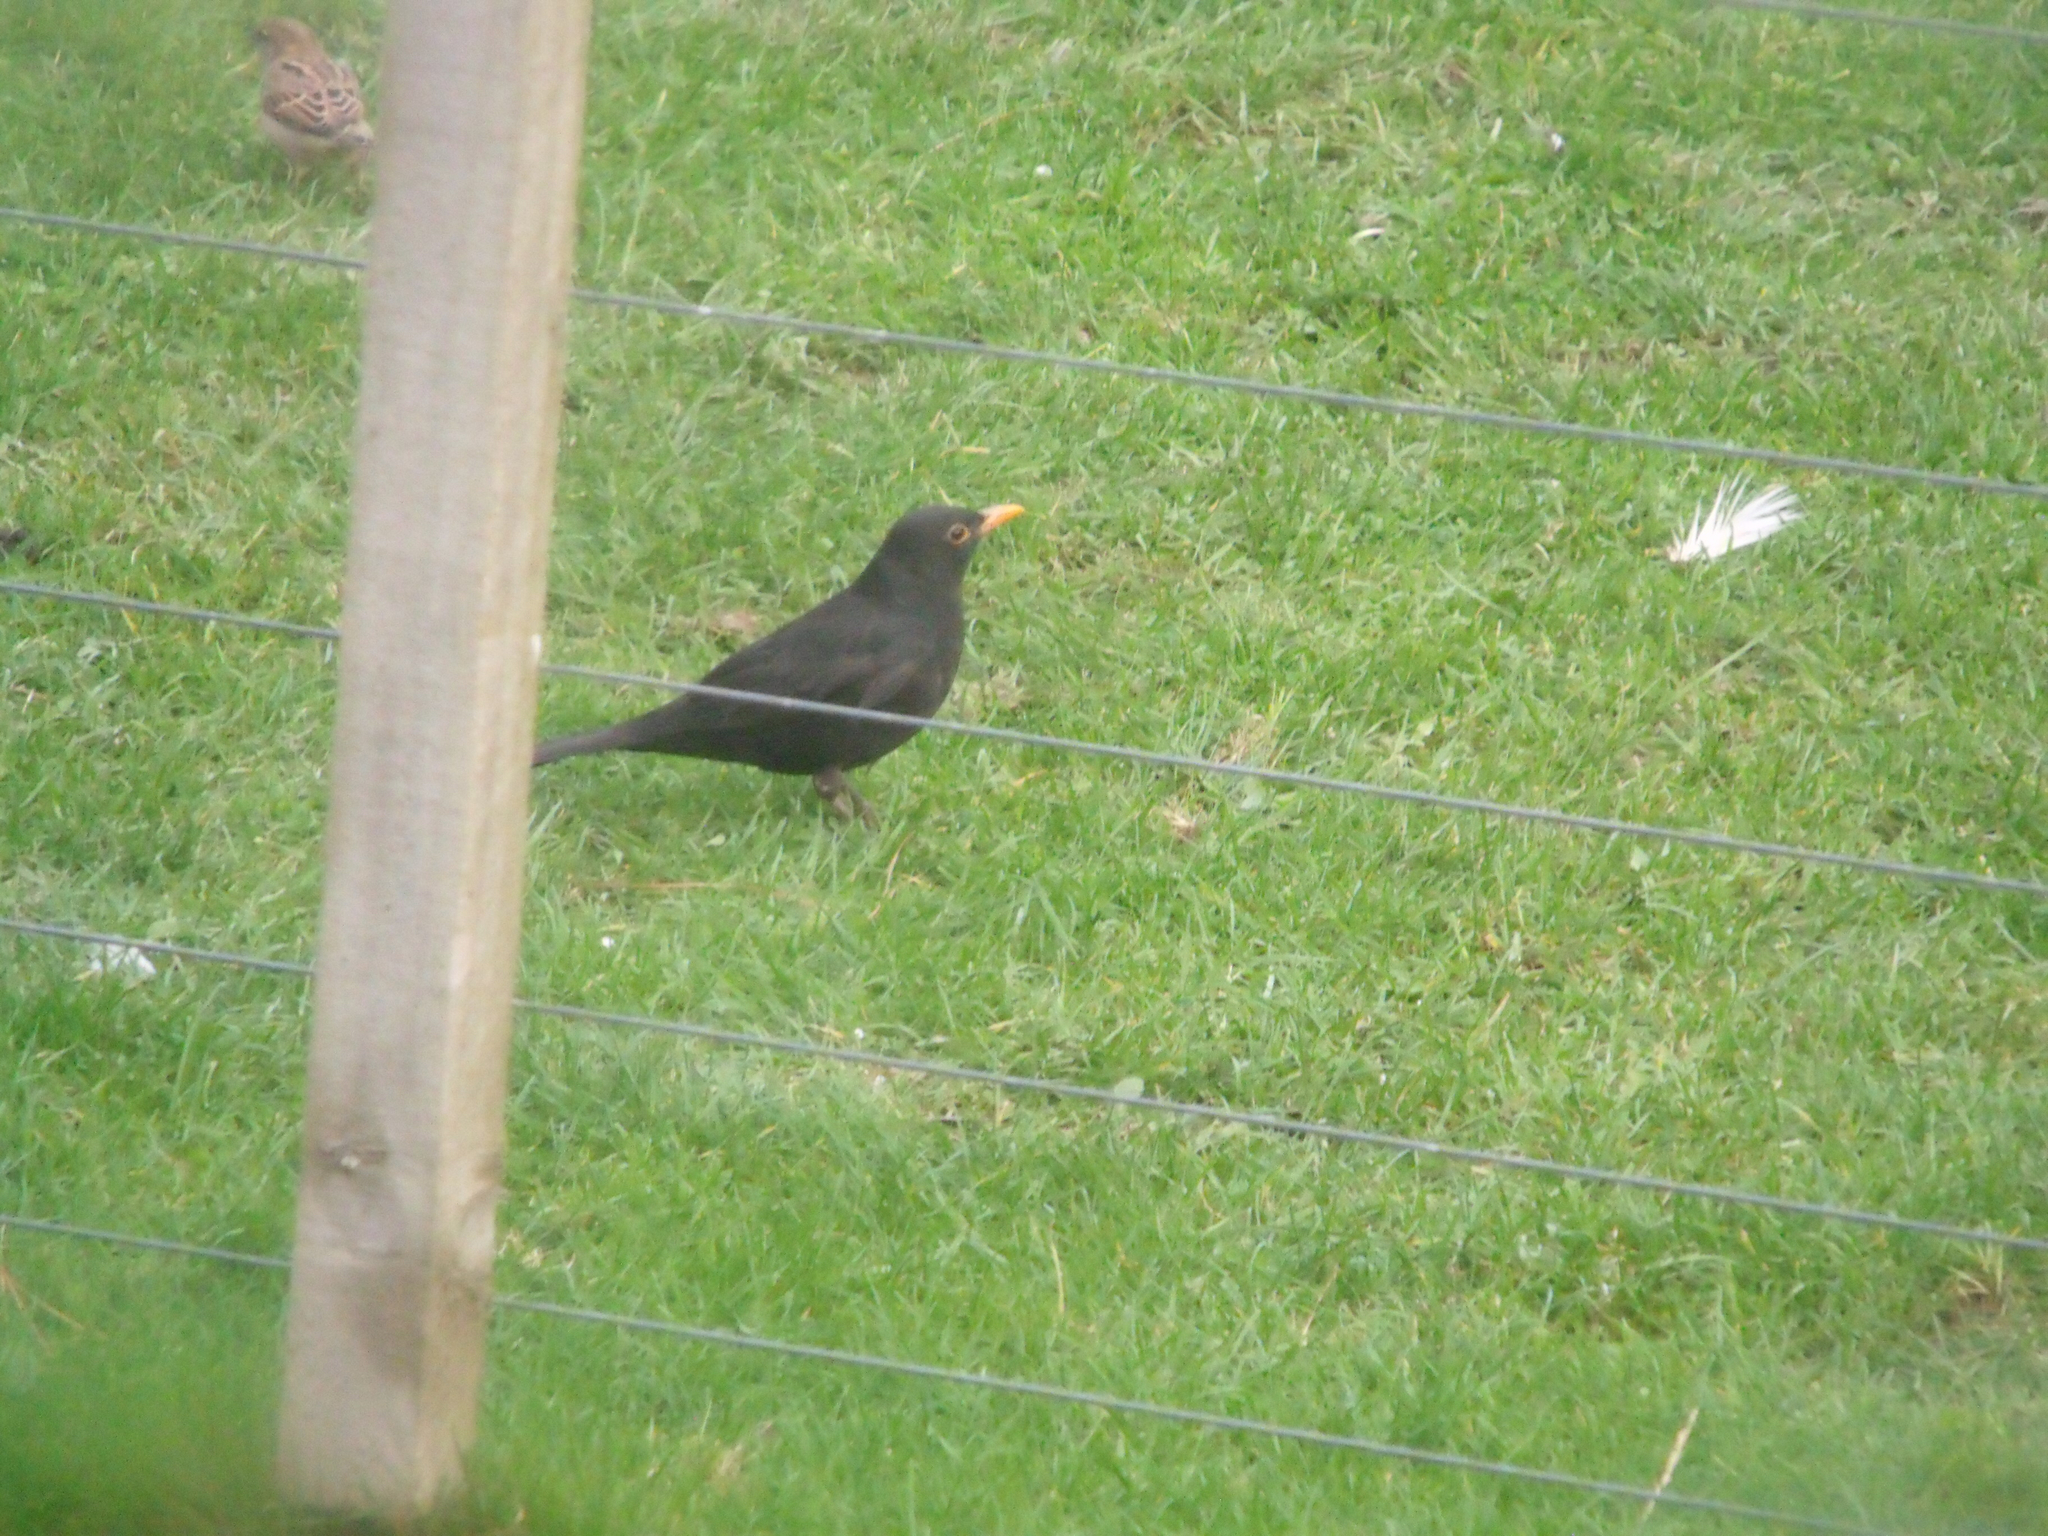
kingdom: Animalia
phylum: Chordata
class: Aves
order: Passeriformes
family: Turdidae
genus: Turdus
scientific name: Turdus merula
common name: Common blackbird
